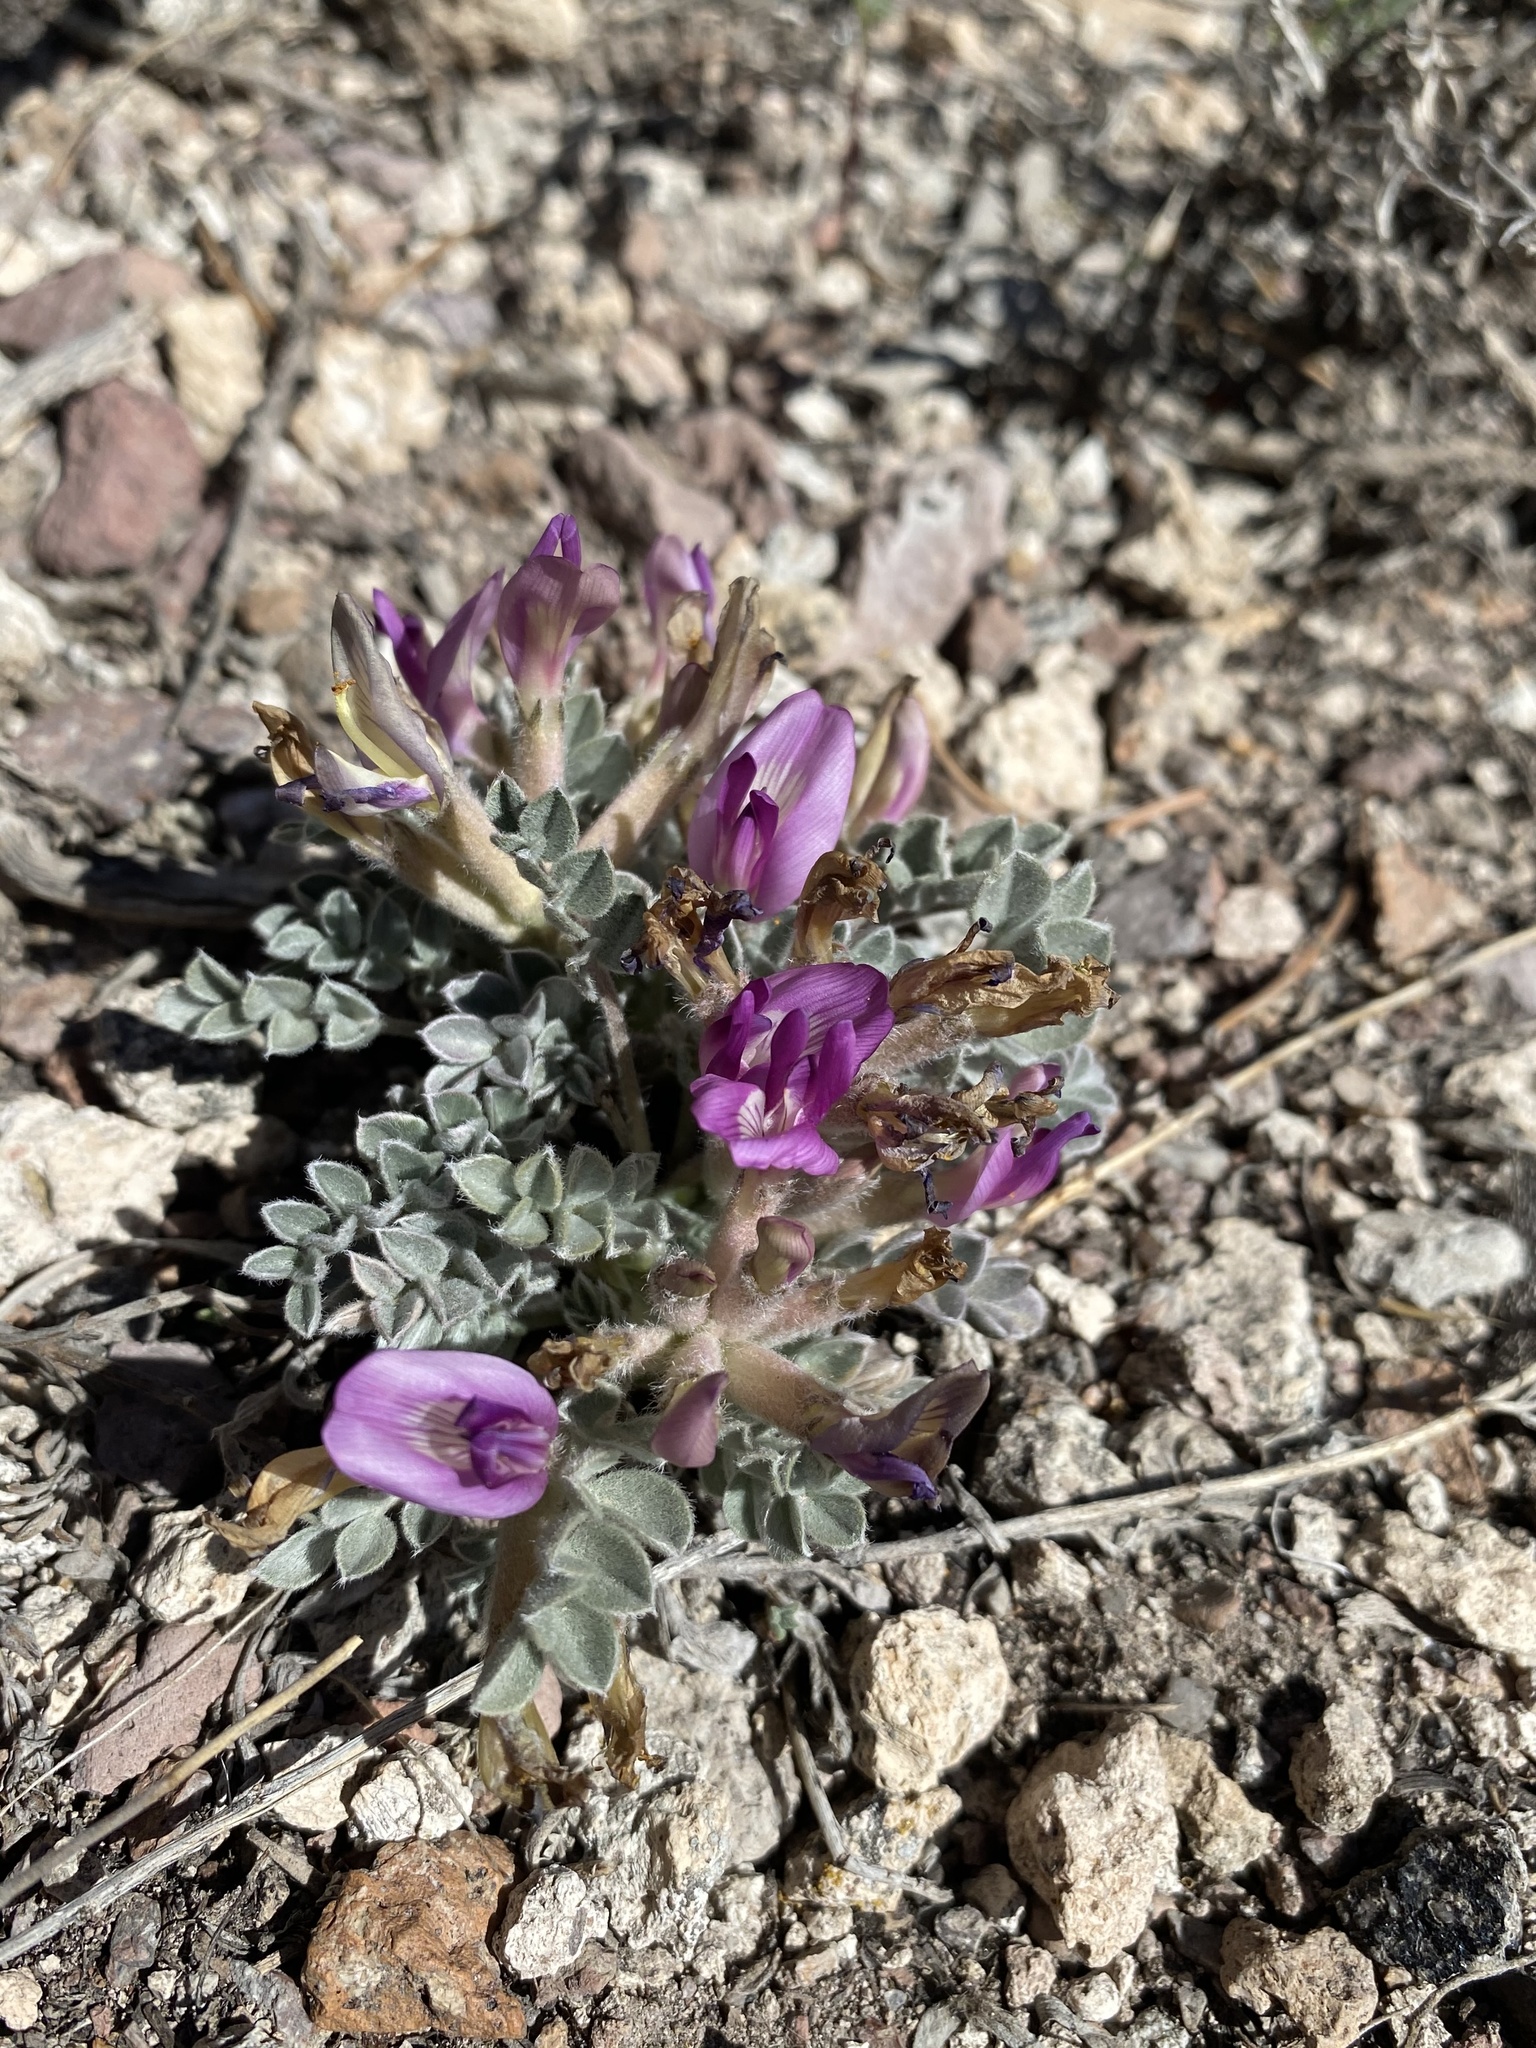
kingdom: Plantae
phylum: Tracheophyta
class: Magnoliopsida
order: Fabales
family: Fabaceae
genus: Astragalus
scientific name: Astragalus newberryi
